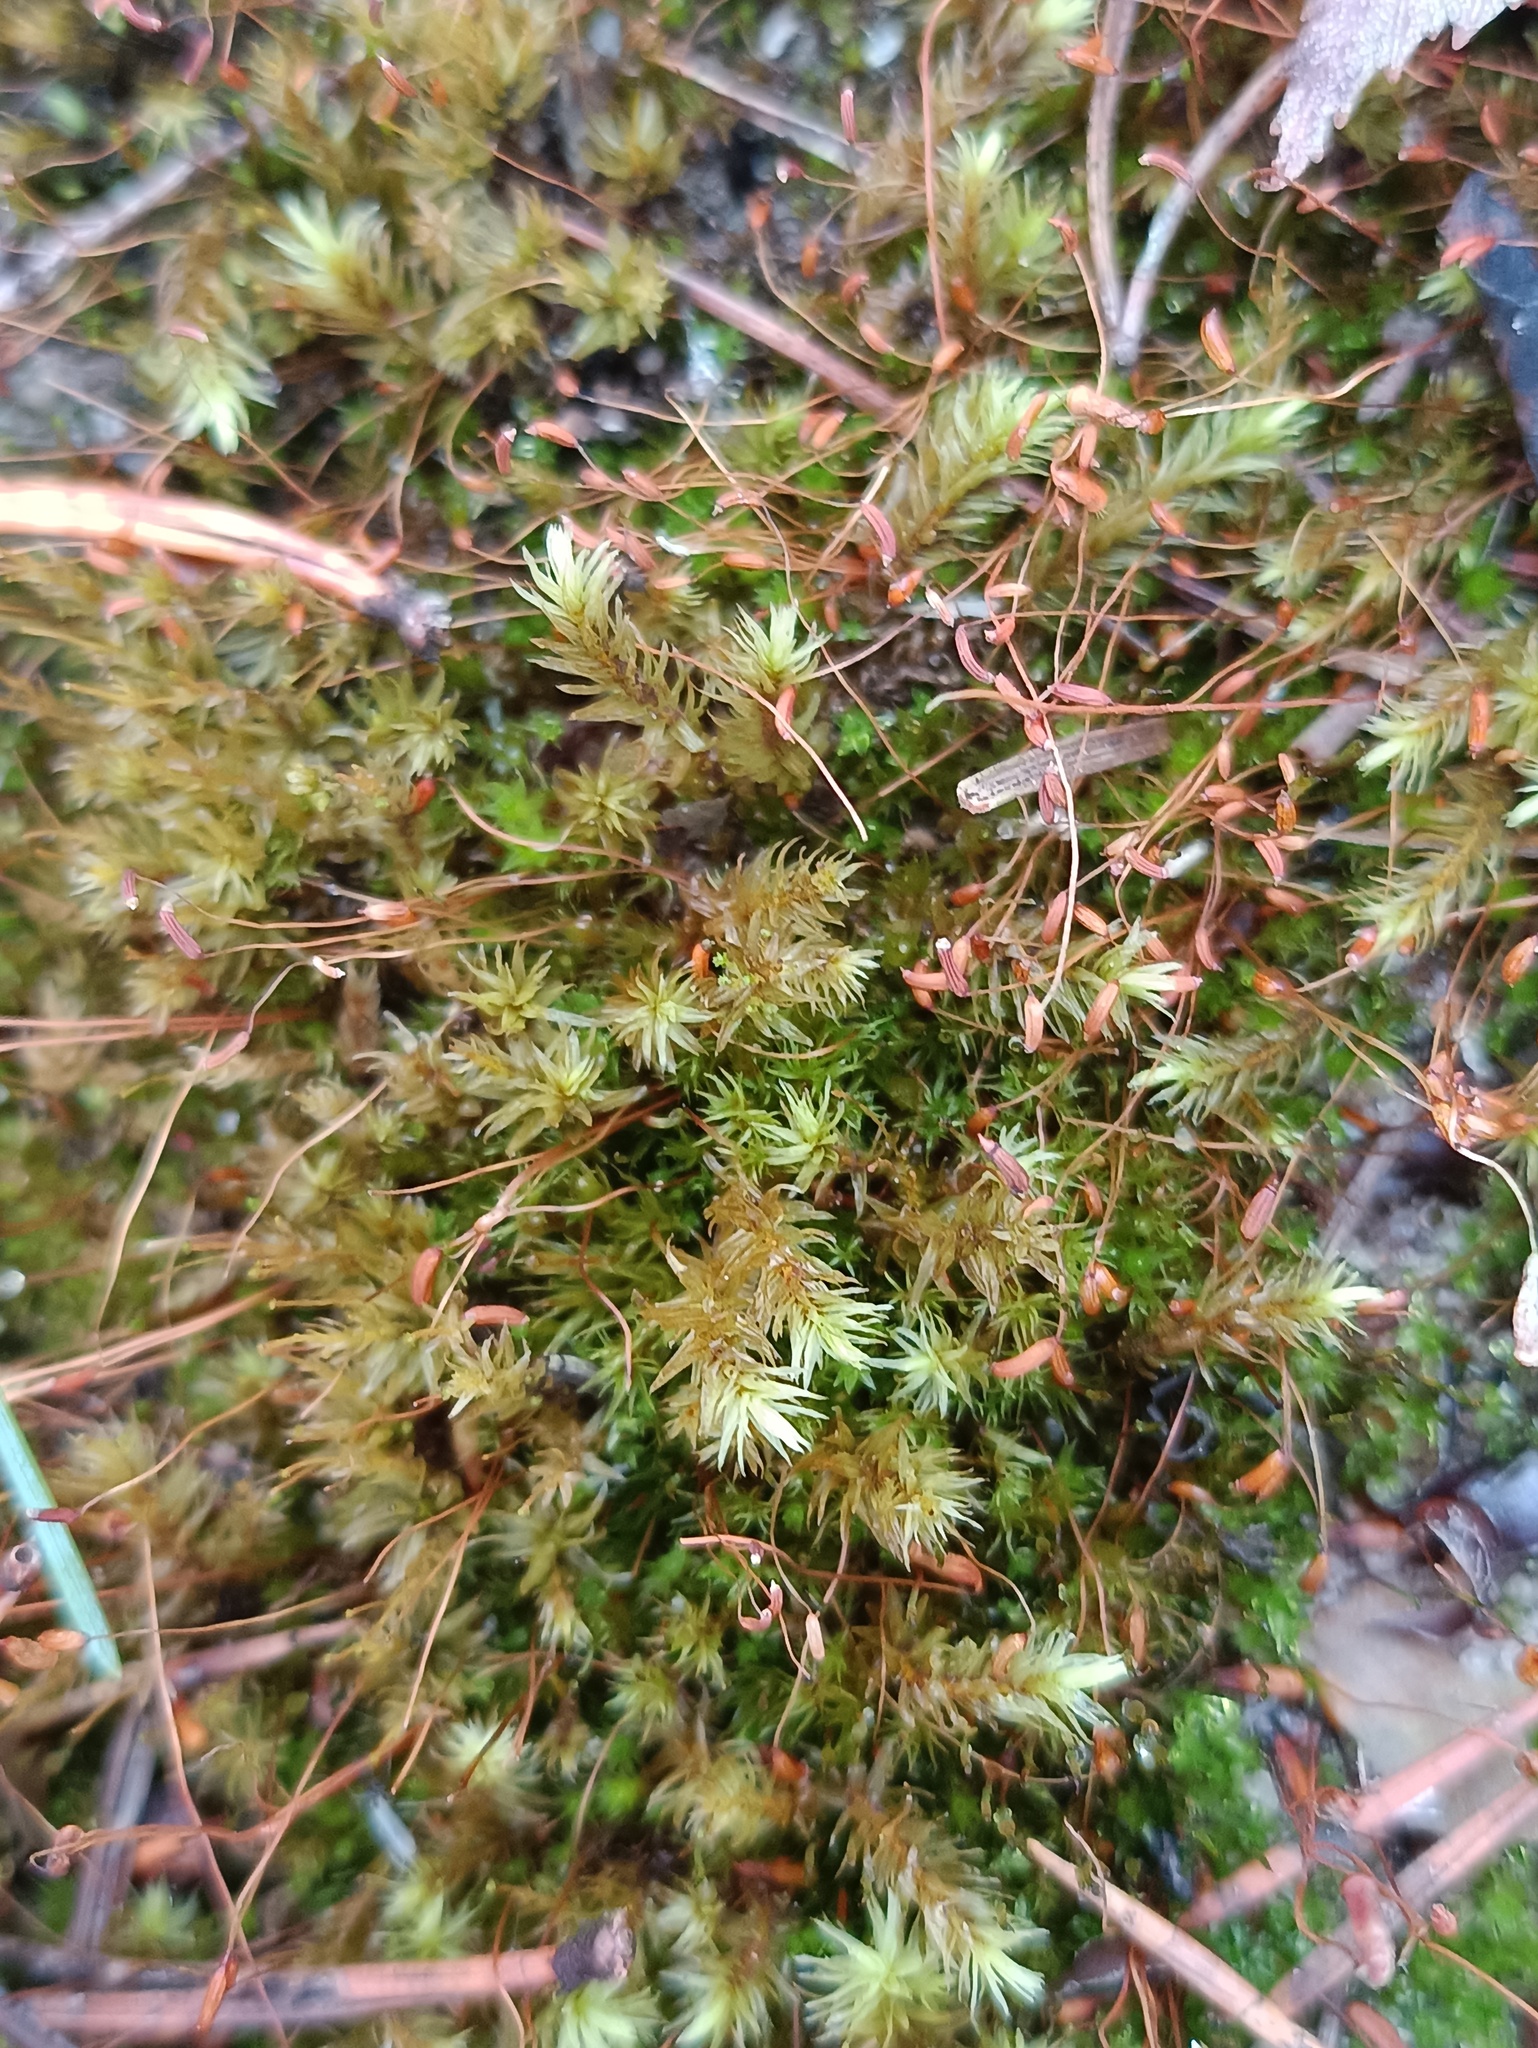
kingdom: Plantae
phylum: Bryophyta
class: Bryopsida
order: Aulacomniales
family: Aulacomniaceae
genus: Aulacomnium
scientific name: Aulacomnium palustre
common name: Bog groove-moss
